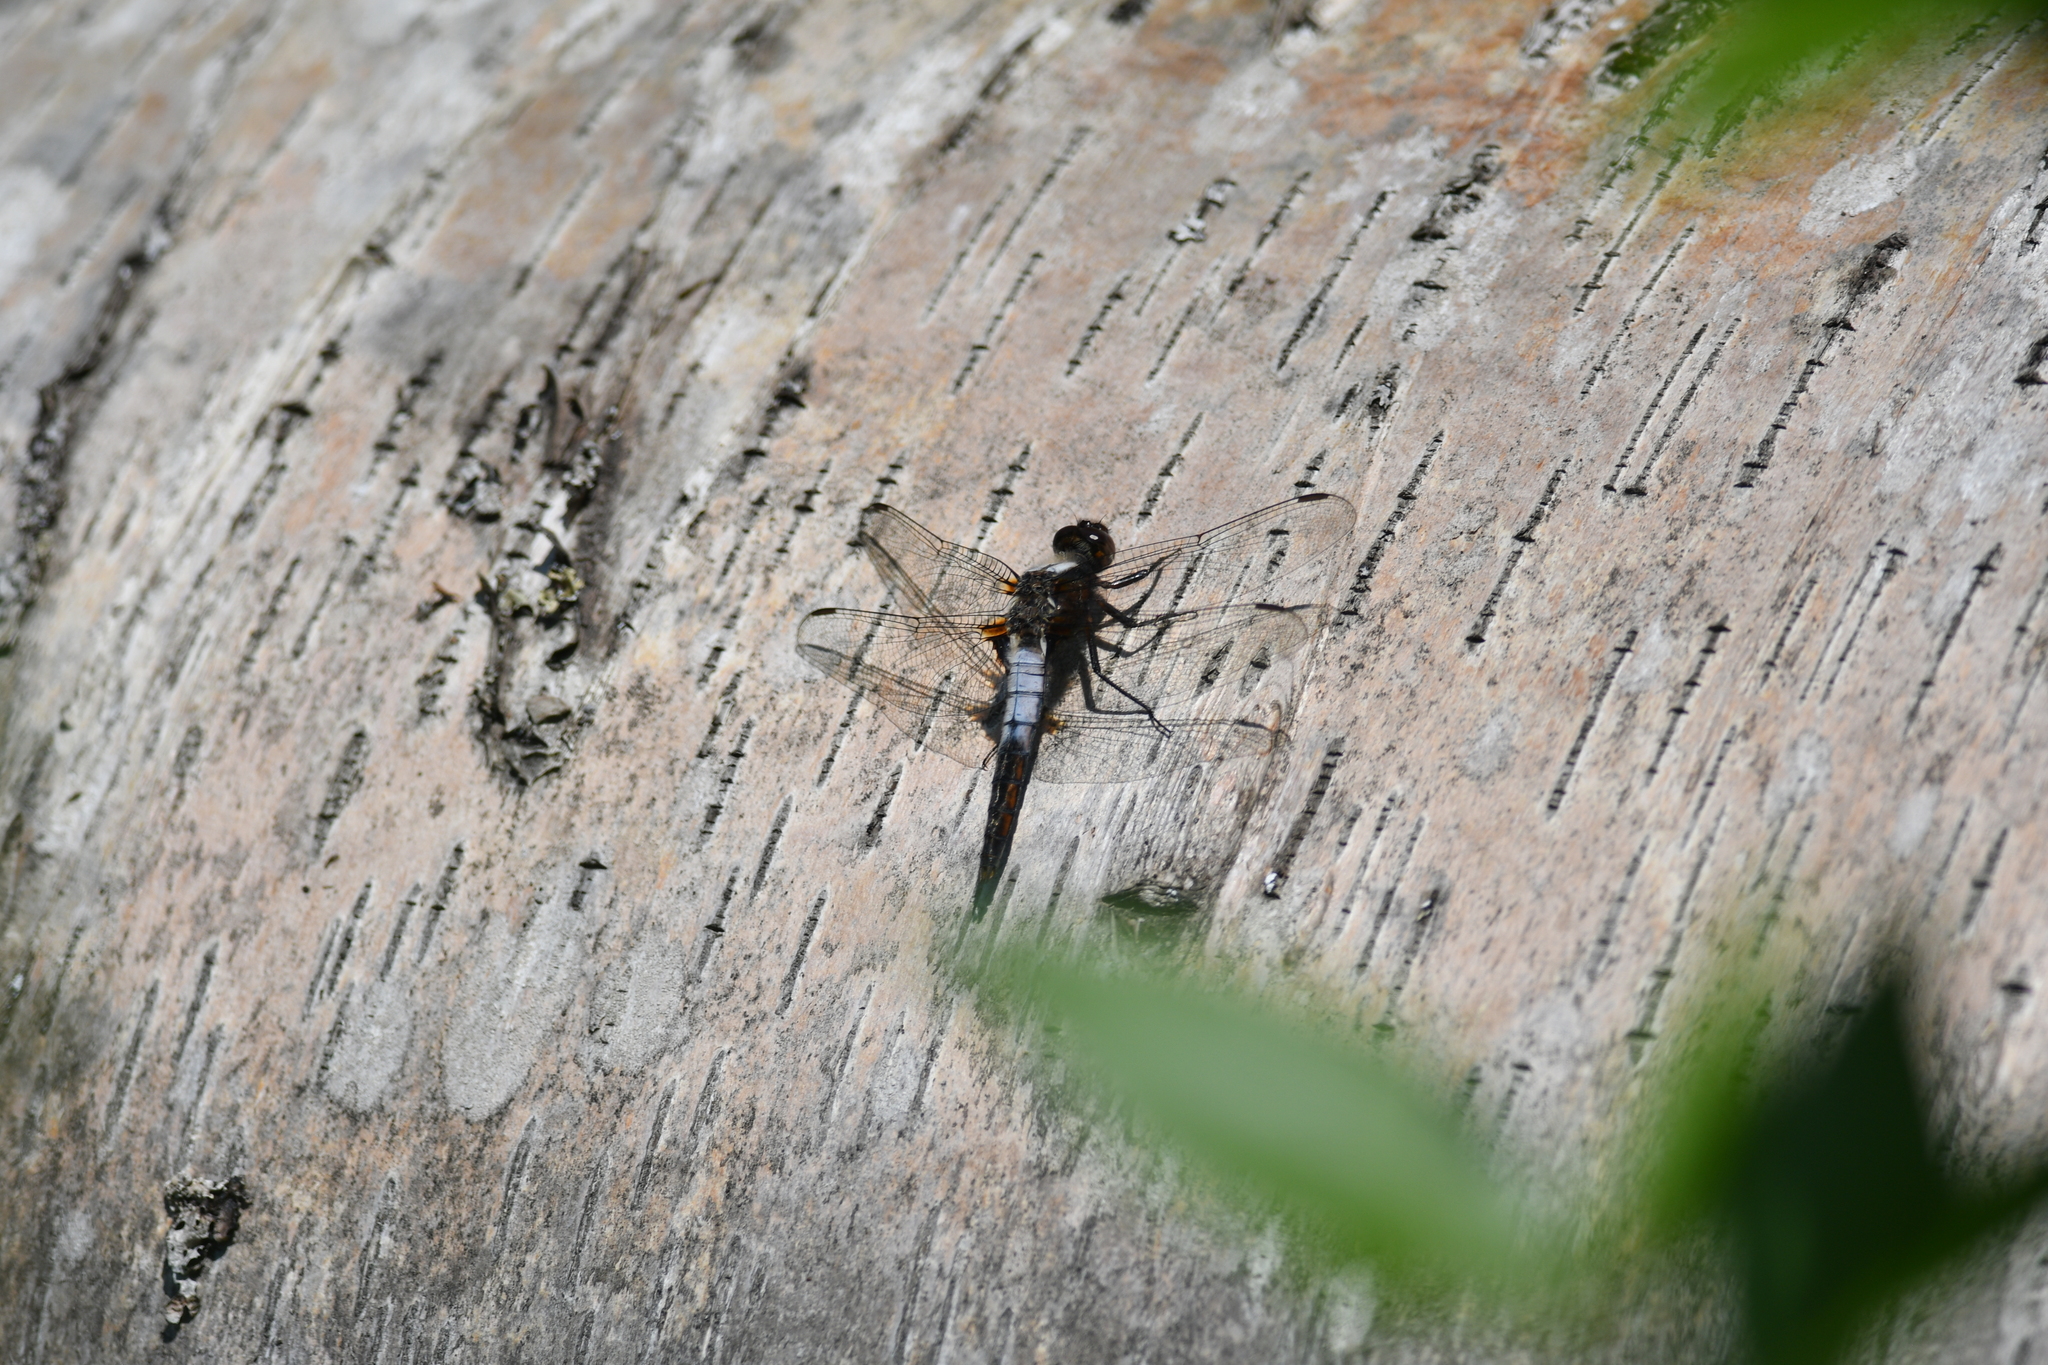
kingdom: Animalia
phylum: Arthropoda
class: Insecta
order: Odonata
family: Libellulidae
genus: Ladona
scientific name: Ladona julia
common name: Chalk-fronted corporal
